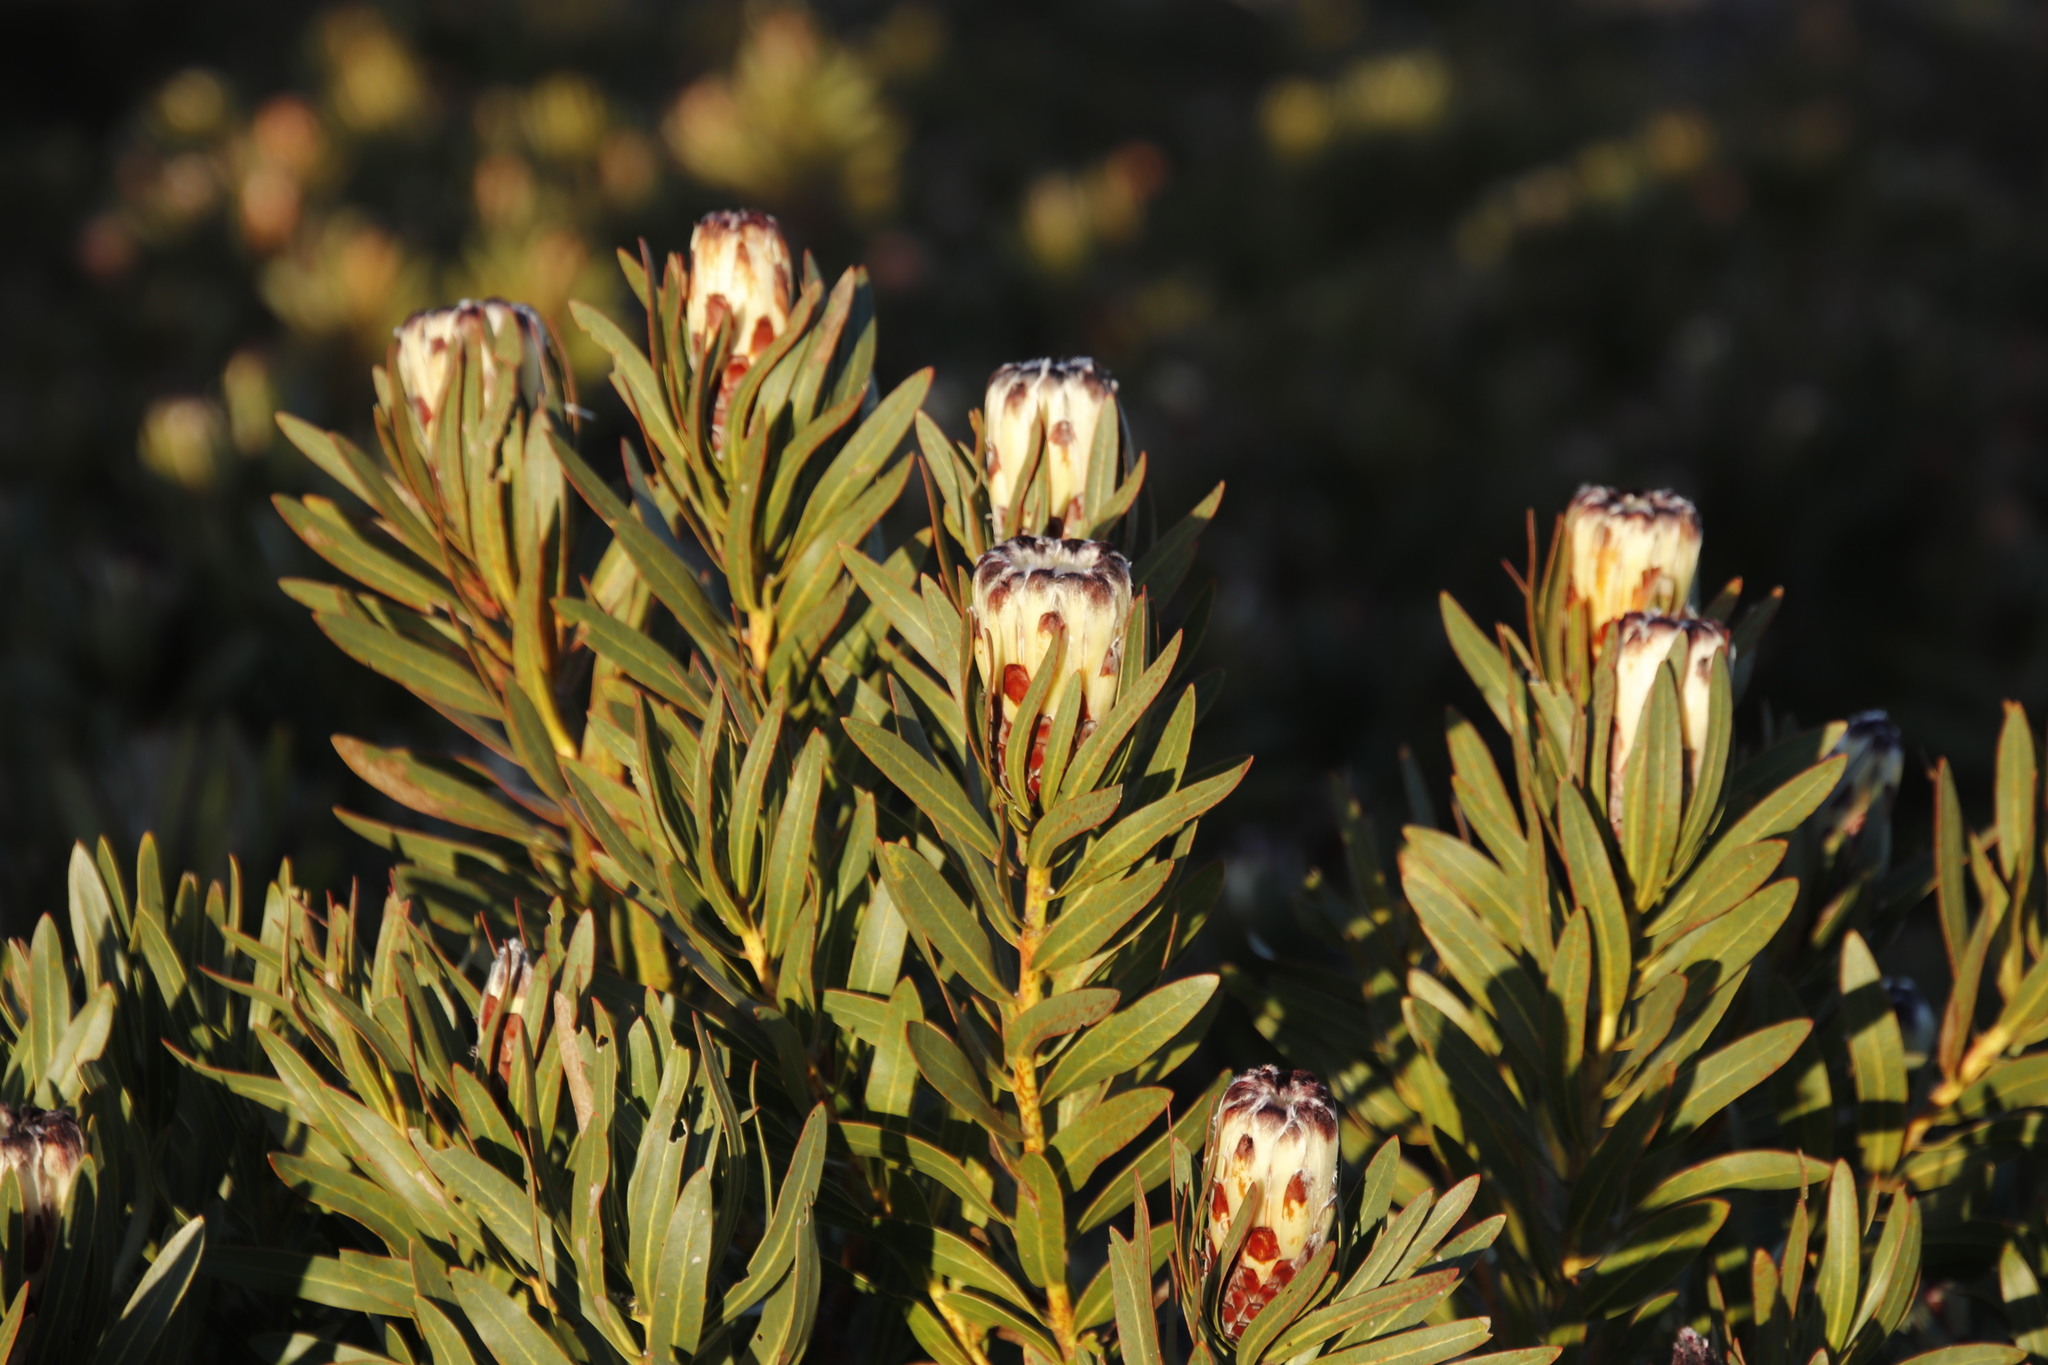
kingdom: Plantae
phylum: Tracheophyta
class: Magnoliopsida
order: Proteales
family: Proteaceae
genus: Protea
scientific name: Protea lepidocarpodendron
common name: Black-bearded protea
